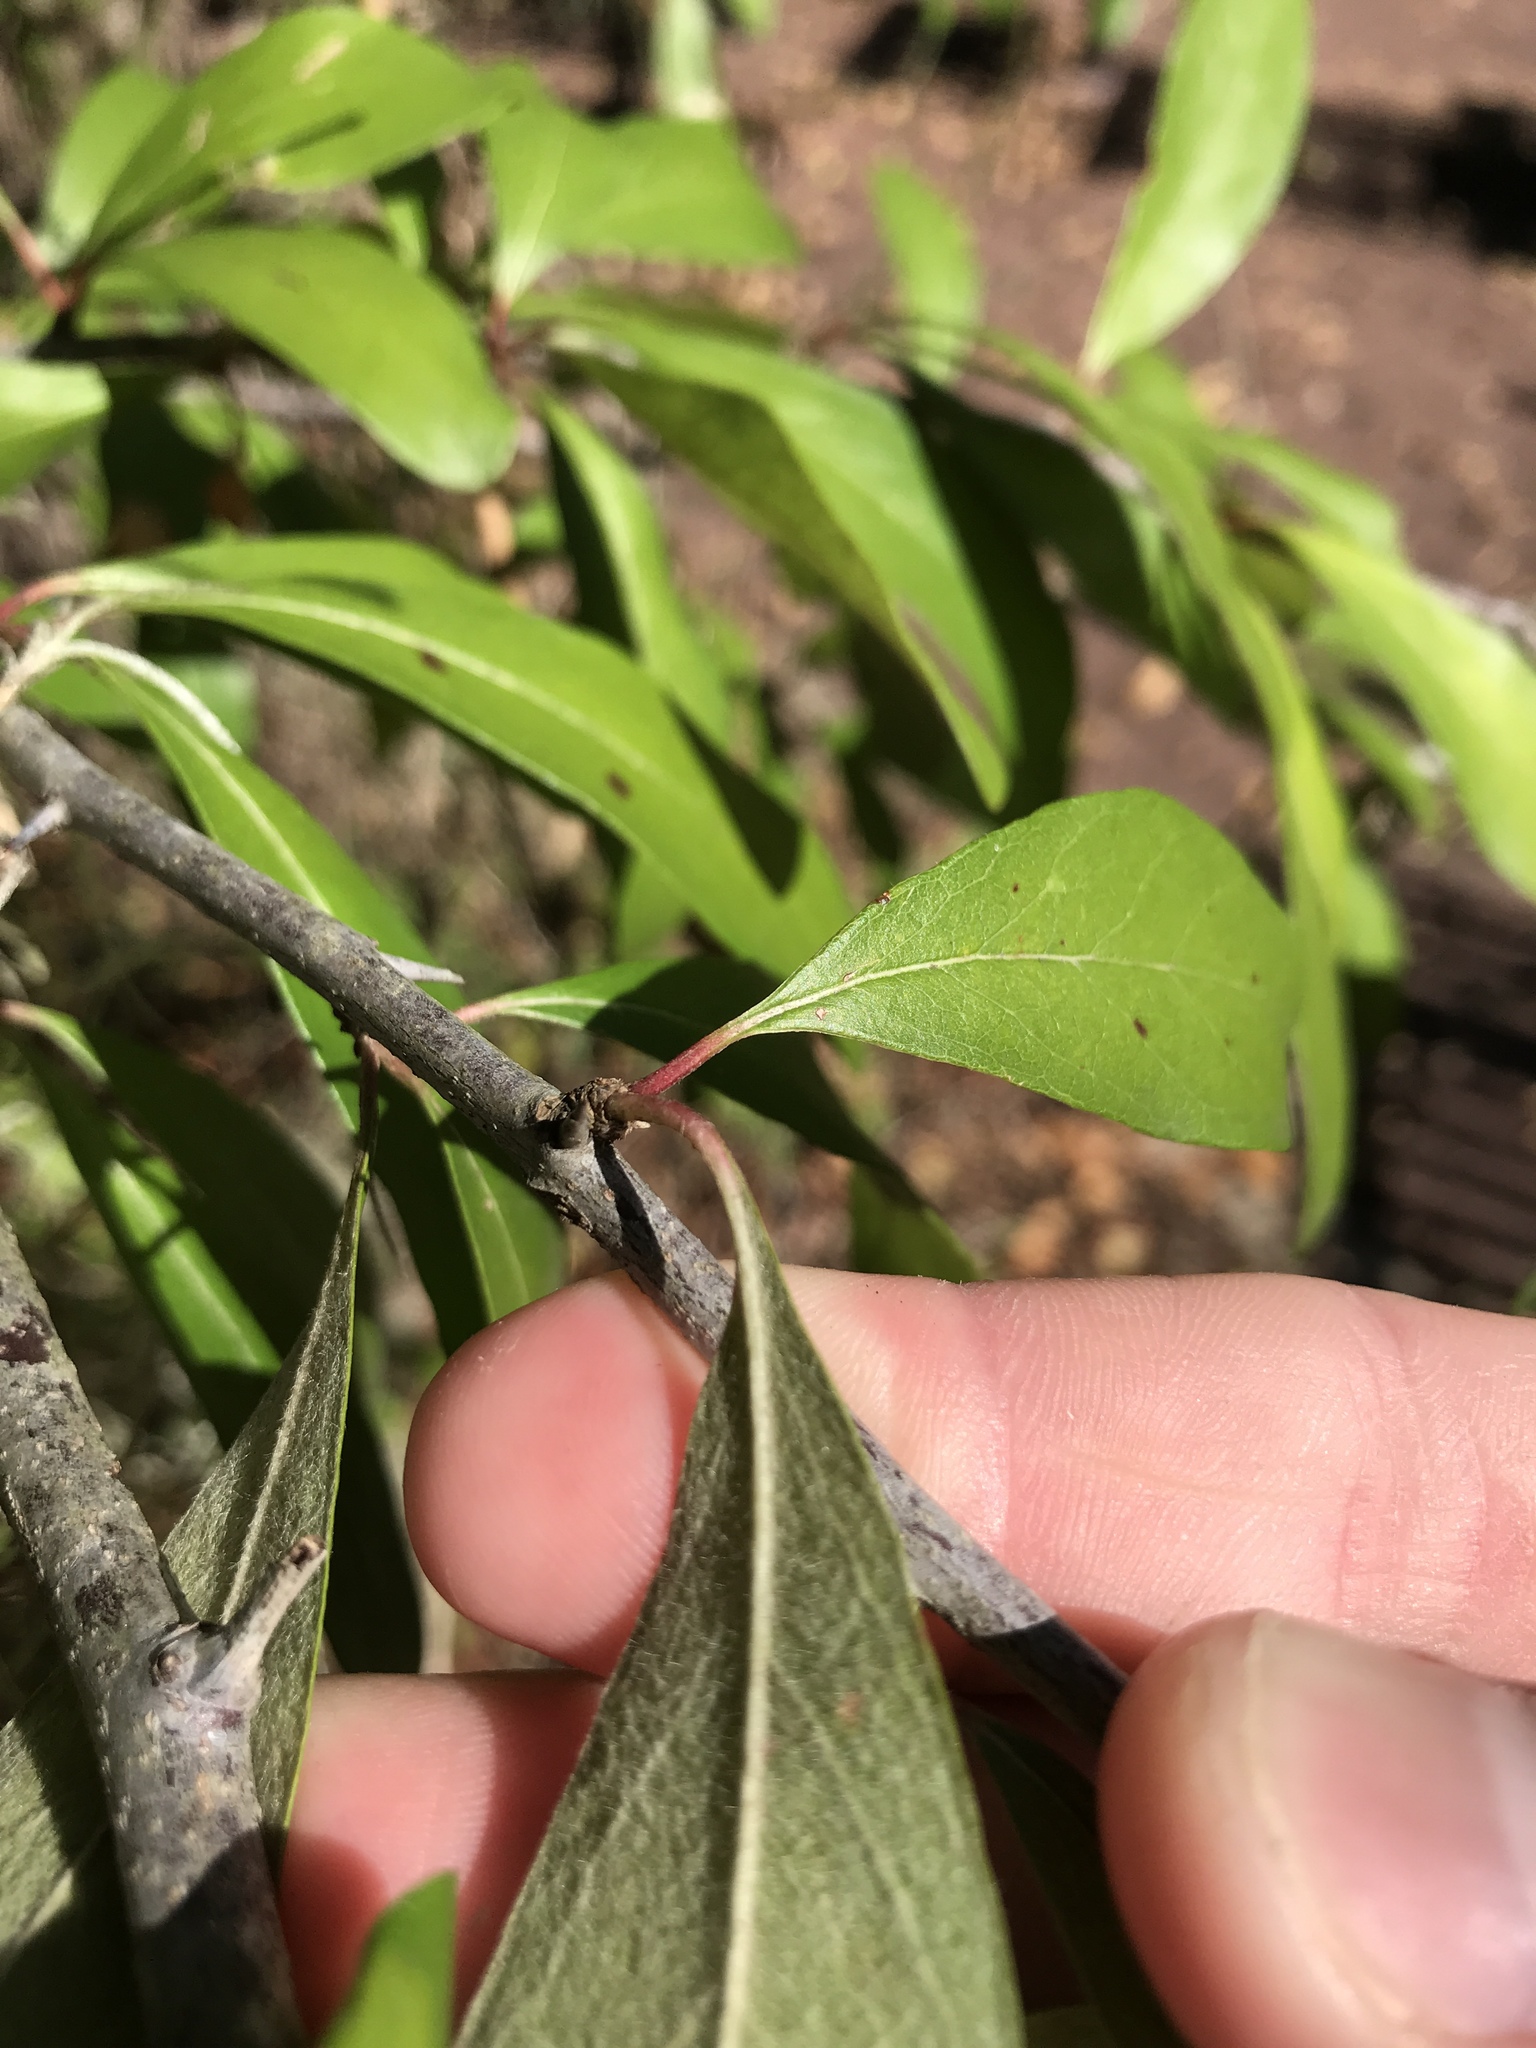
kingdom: Plantae
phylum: Tracheophyta
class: Magnoliopsida
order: Ericales
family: Sapotaceae
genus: Sideroxylon
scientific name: Sideroxylon lanuginosum
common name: Chittamwood
